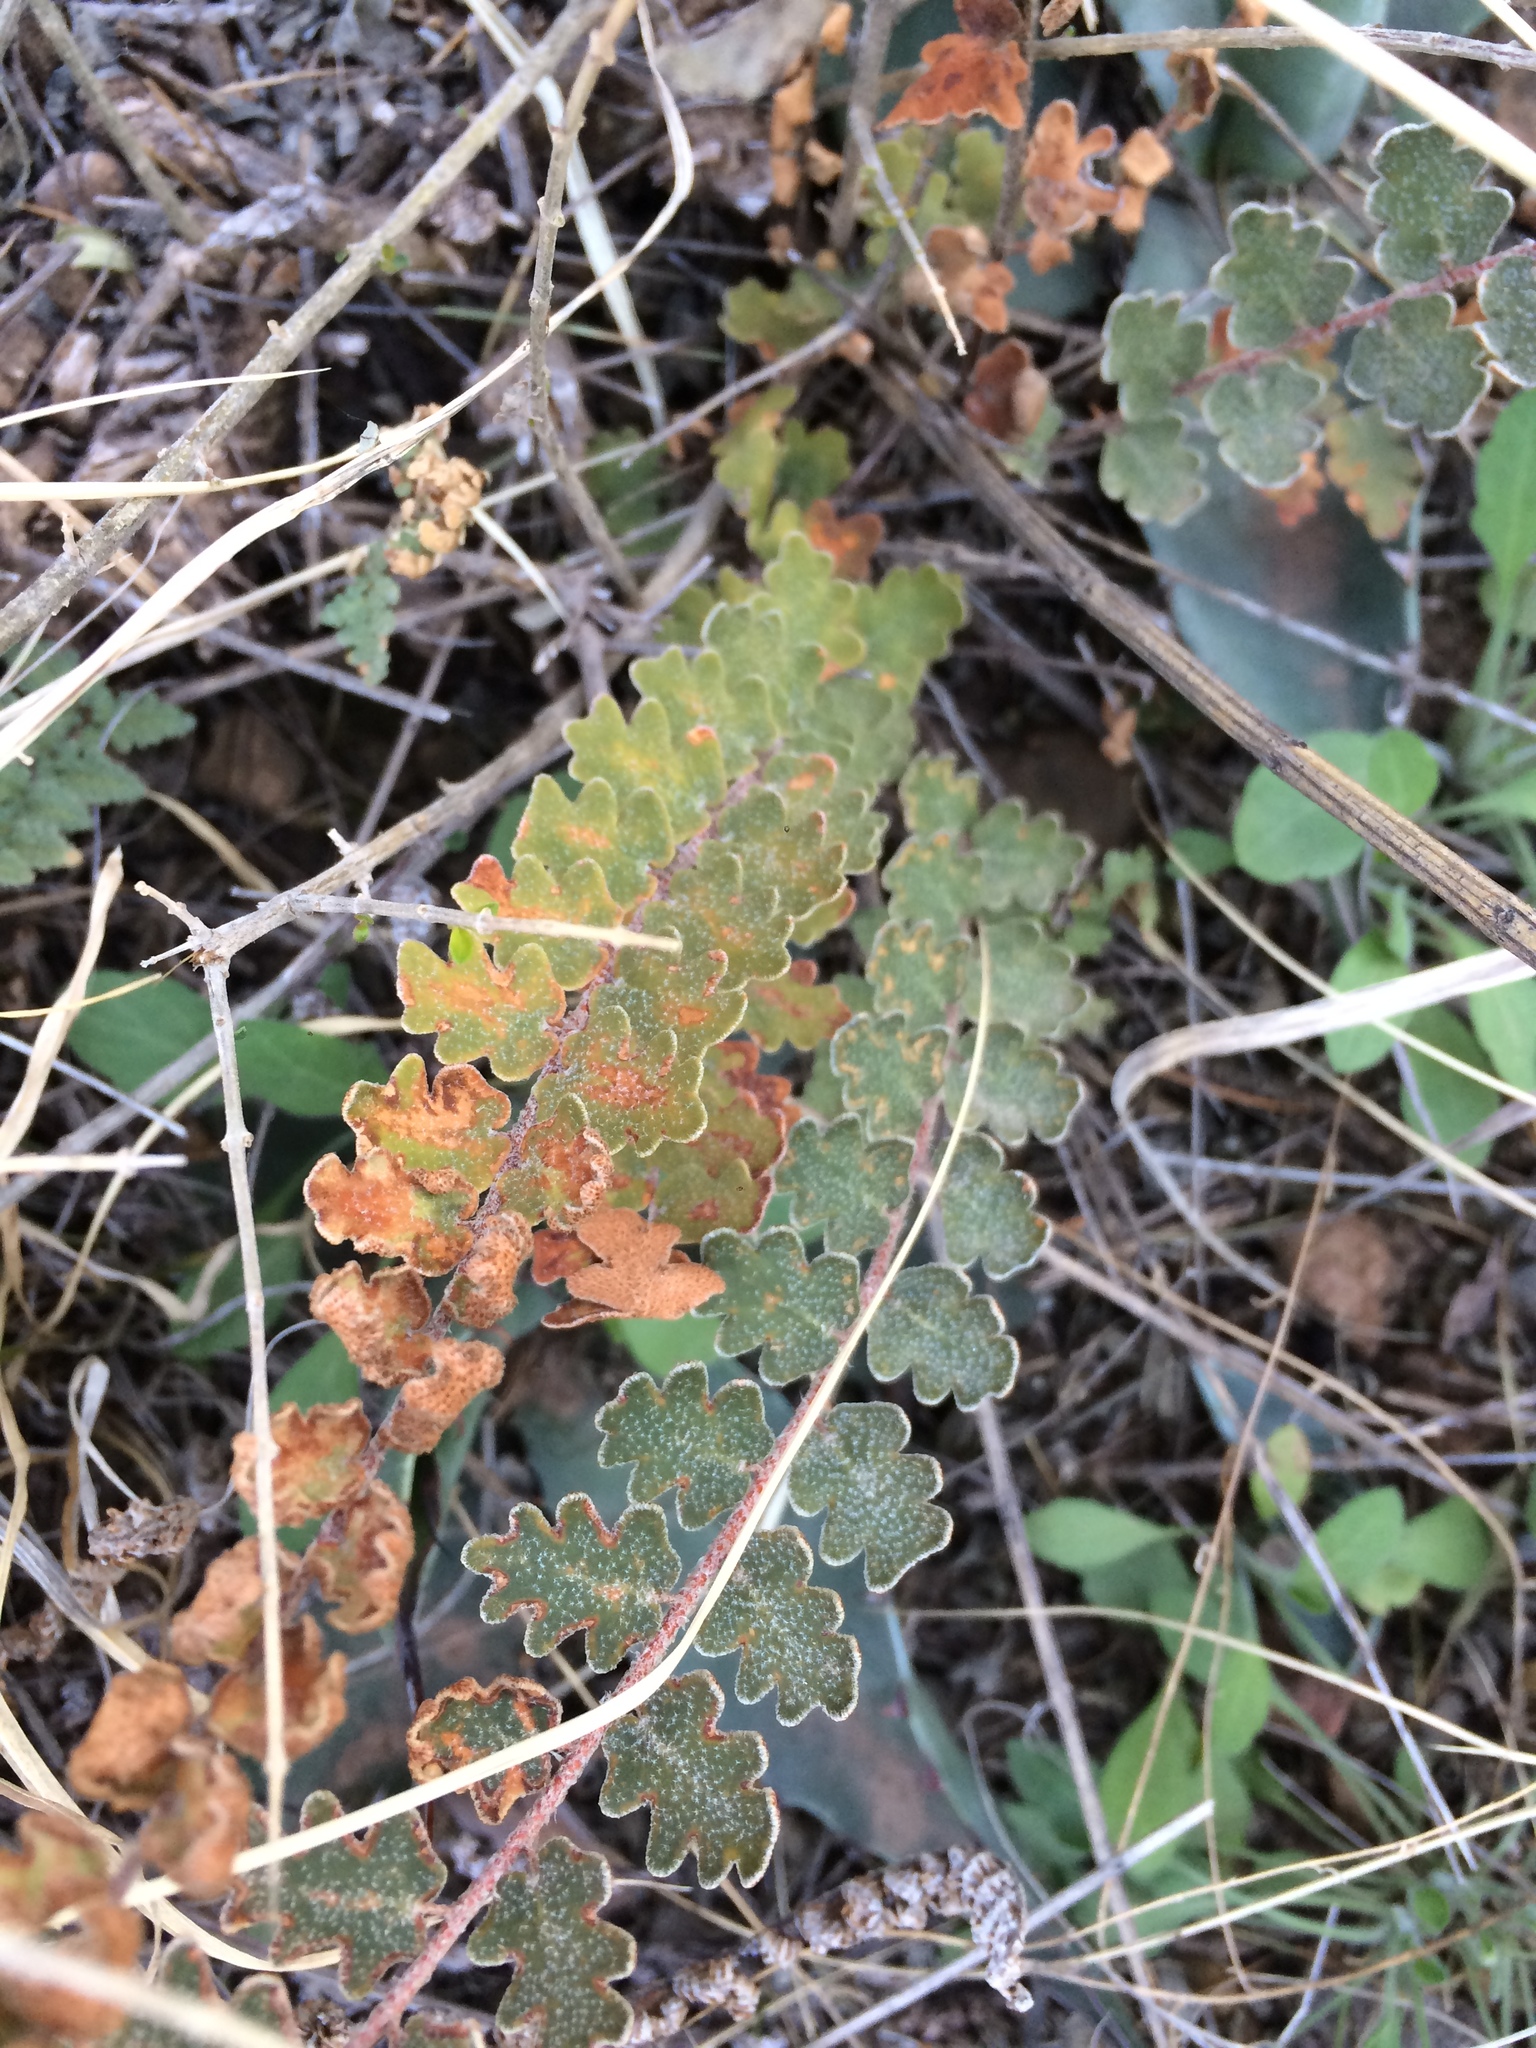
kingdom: Plantae
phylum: Tracheophyta
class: Polypodiopsida
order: Polypodiales
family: Pteridaceae
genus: Astrolepis
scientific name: Astrolepis sinuata
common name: Wavy scaly cloakfern
